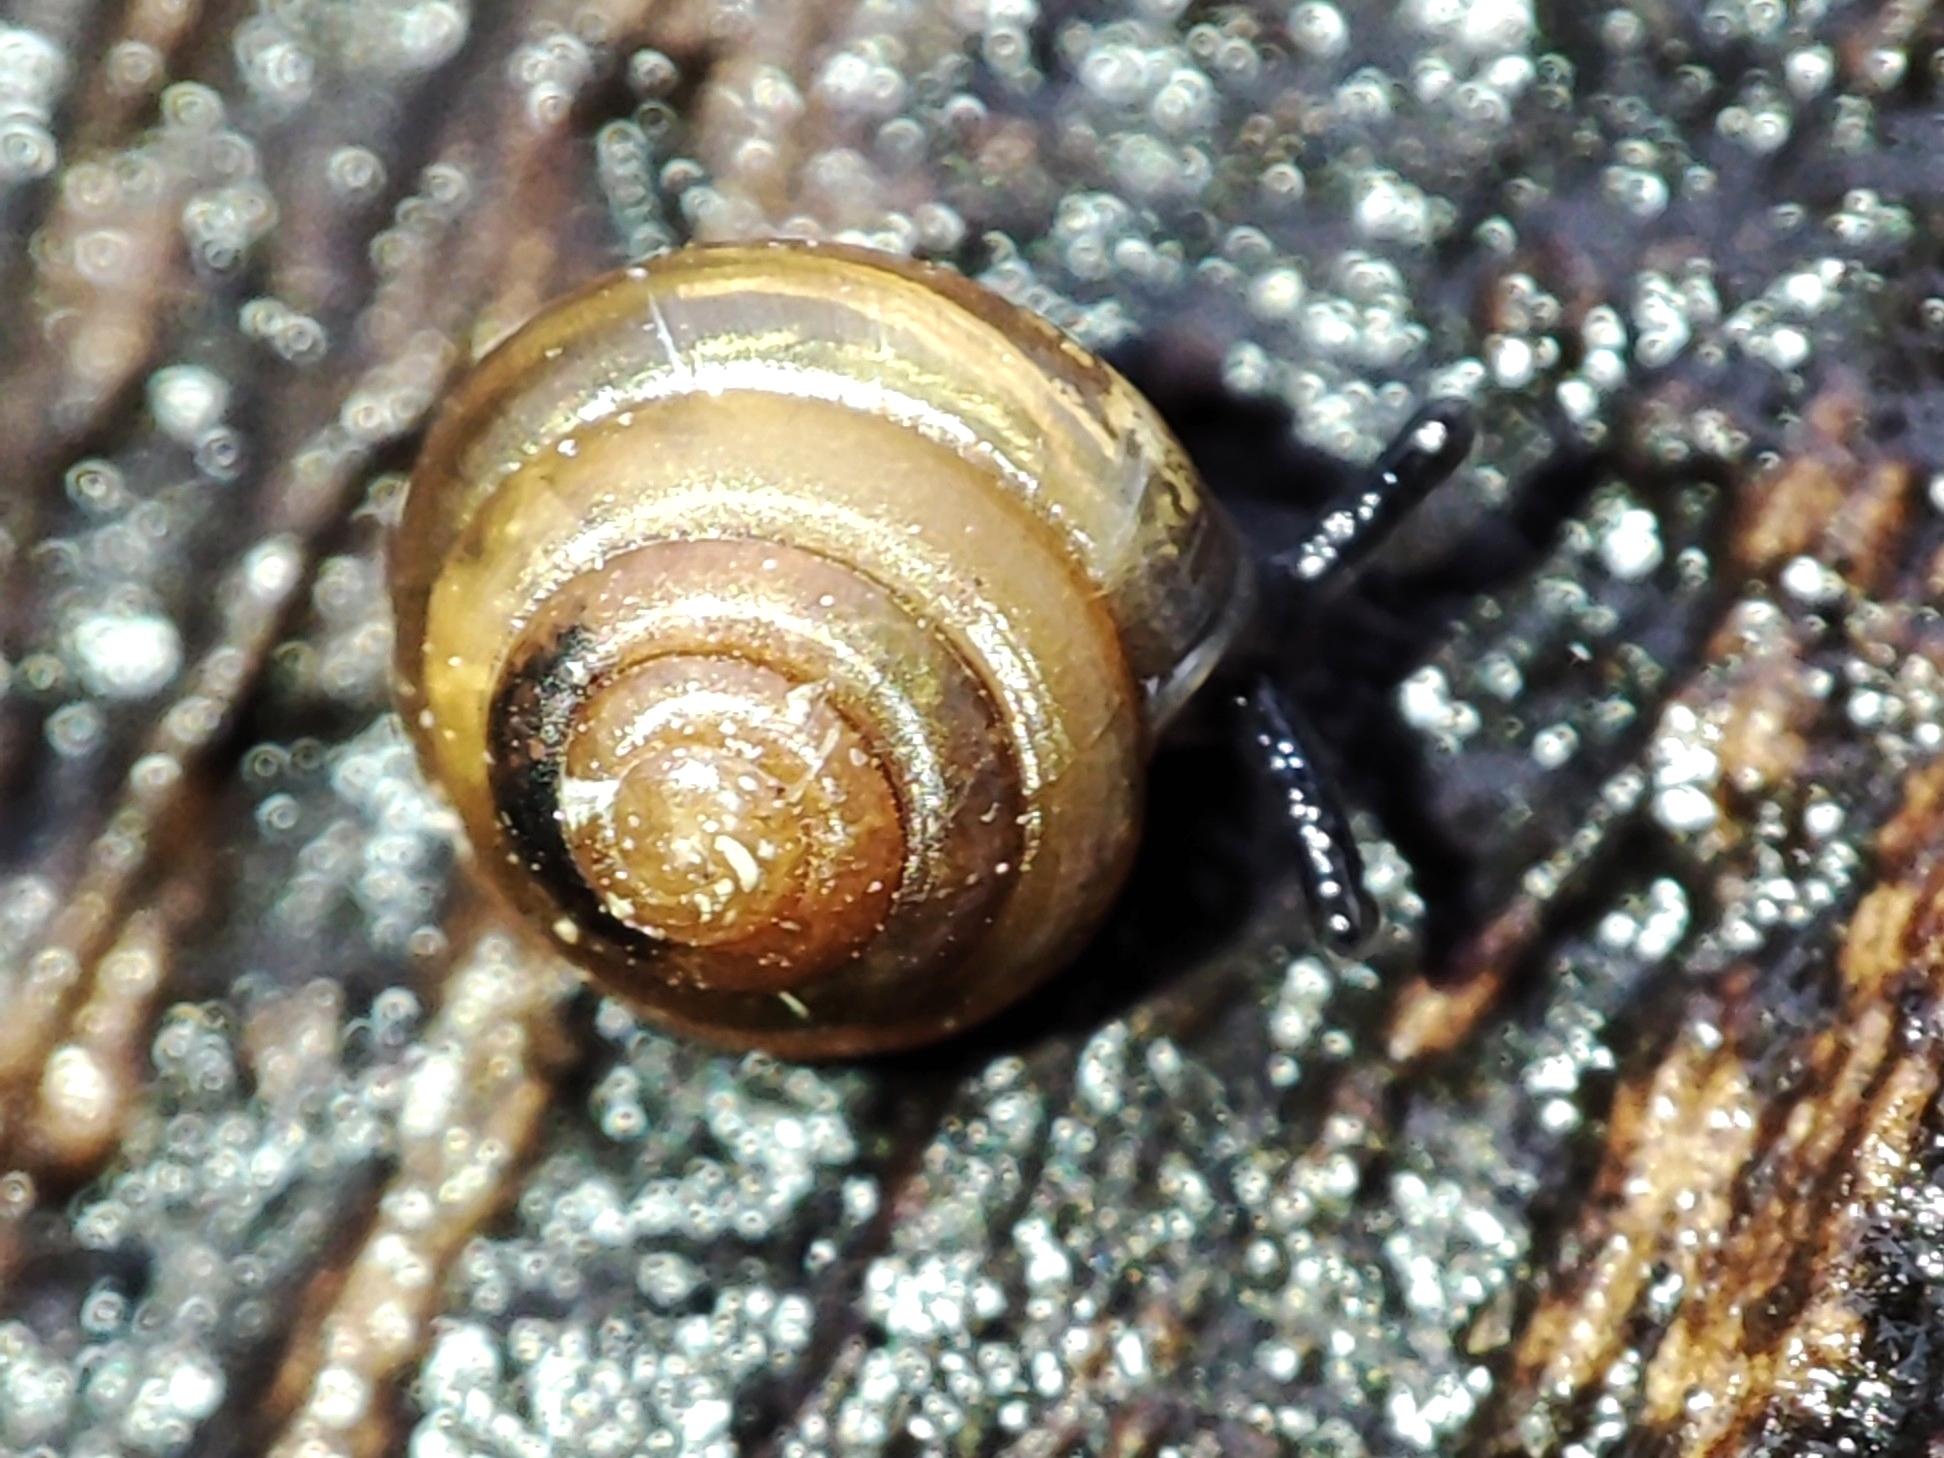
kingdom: Animalia
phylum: Mollusca
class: Gastropoda
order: Stylommatophora
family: Euconulidae
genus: Euconulus
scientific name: Euconulus fulvus
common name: Tawny glass snail
